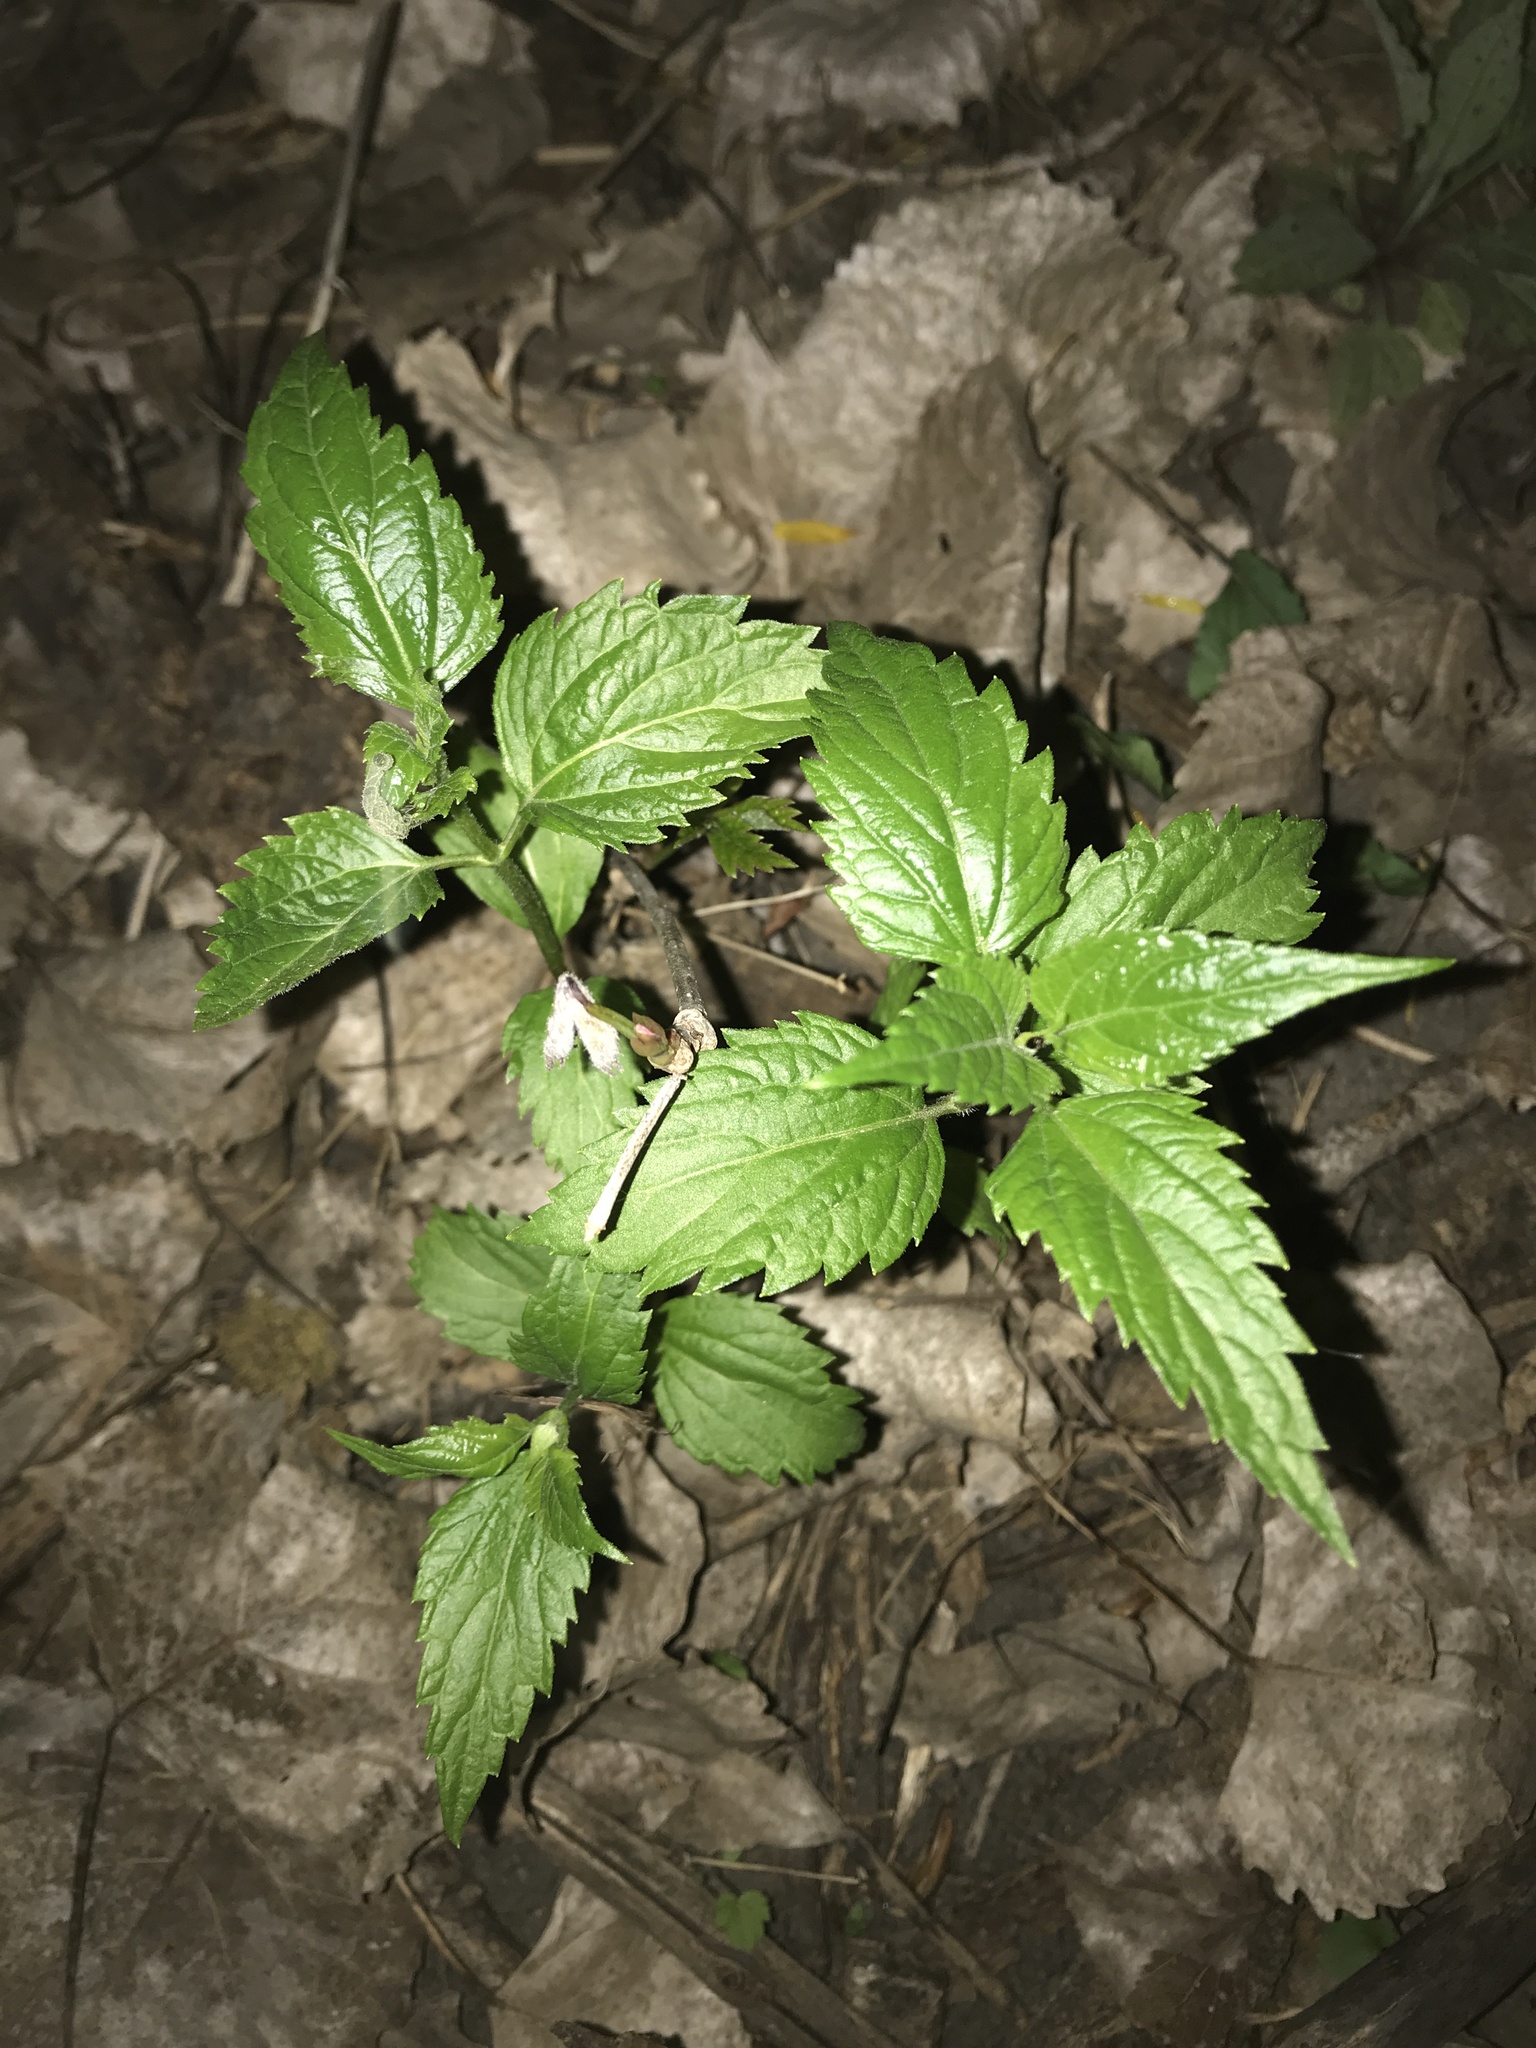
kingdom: Plantae
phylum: Tracheophyta
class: Magnoliopsida
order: Rosales
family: Urticaceae
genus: Urtica
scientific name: Urtica dioica
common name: Common nettle
